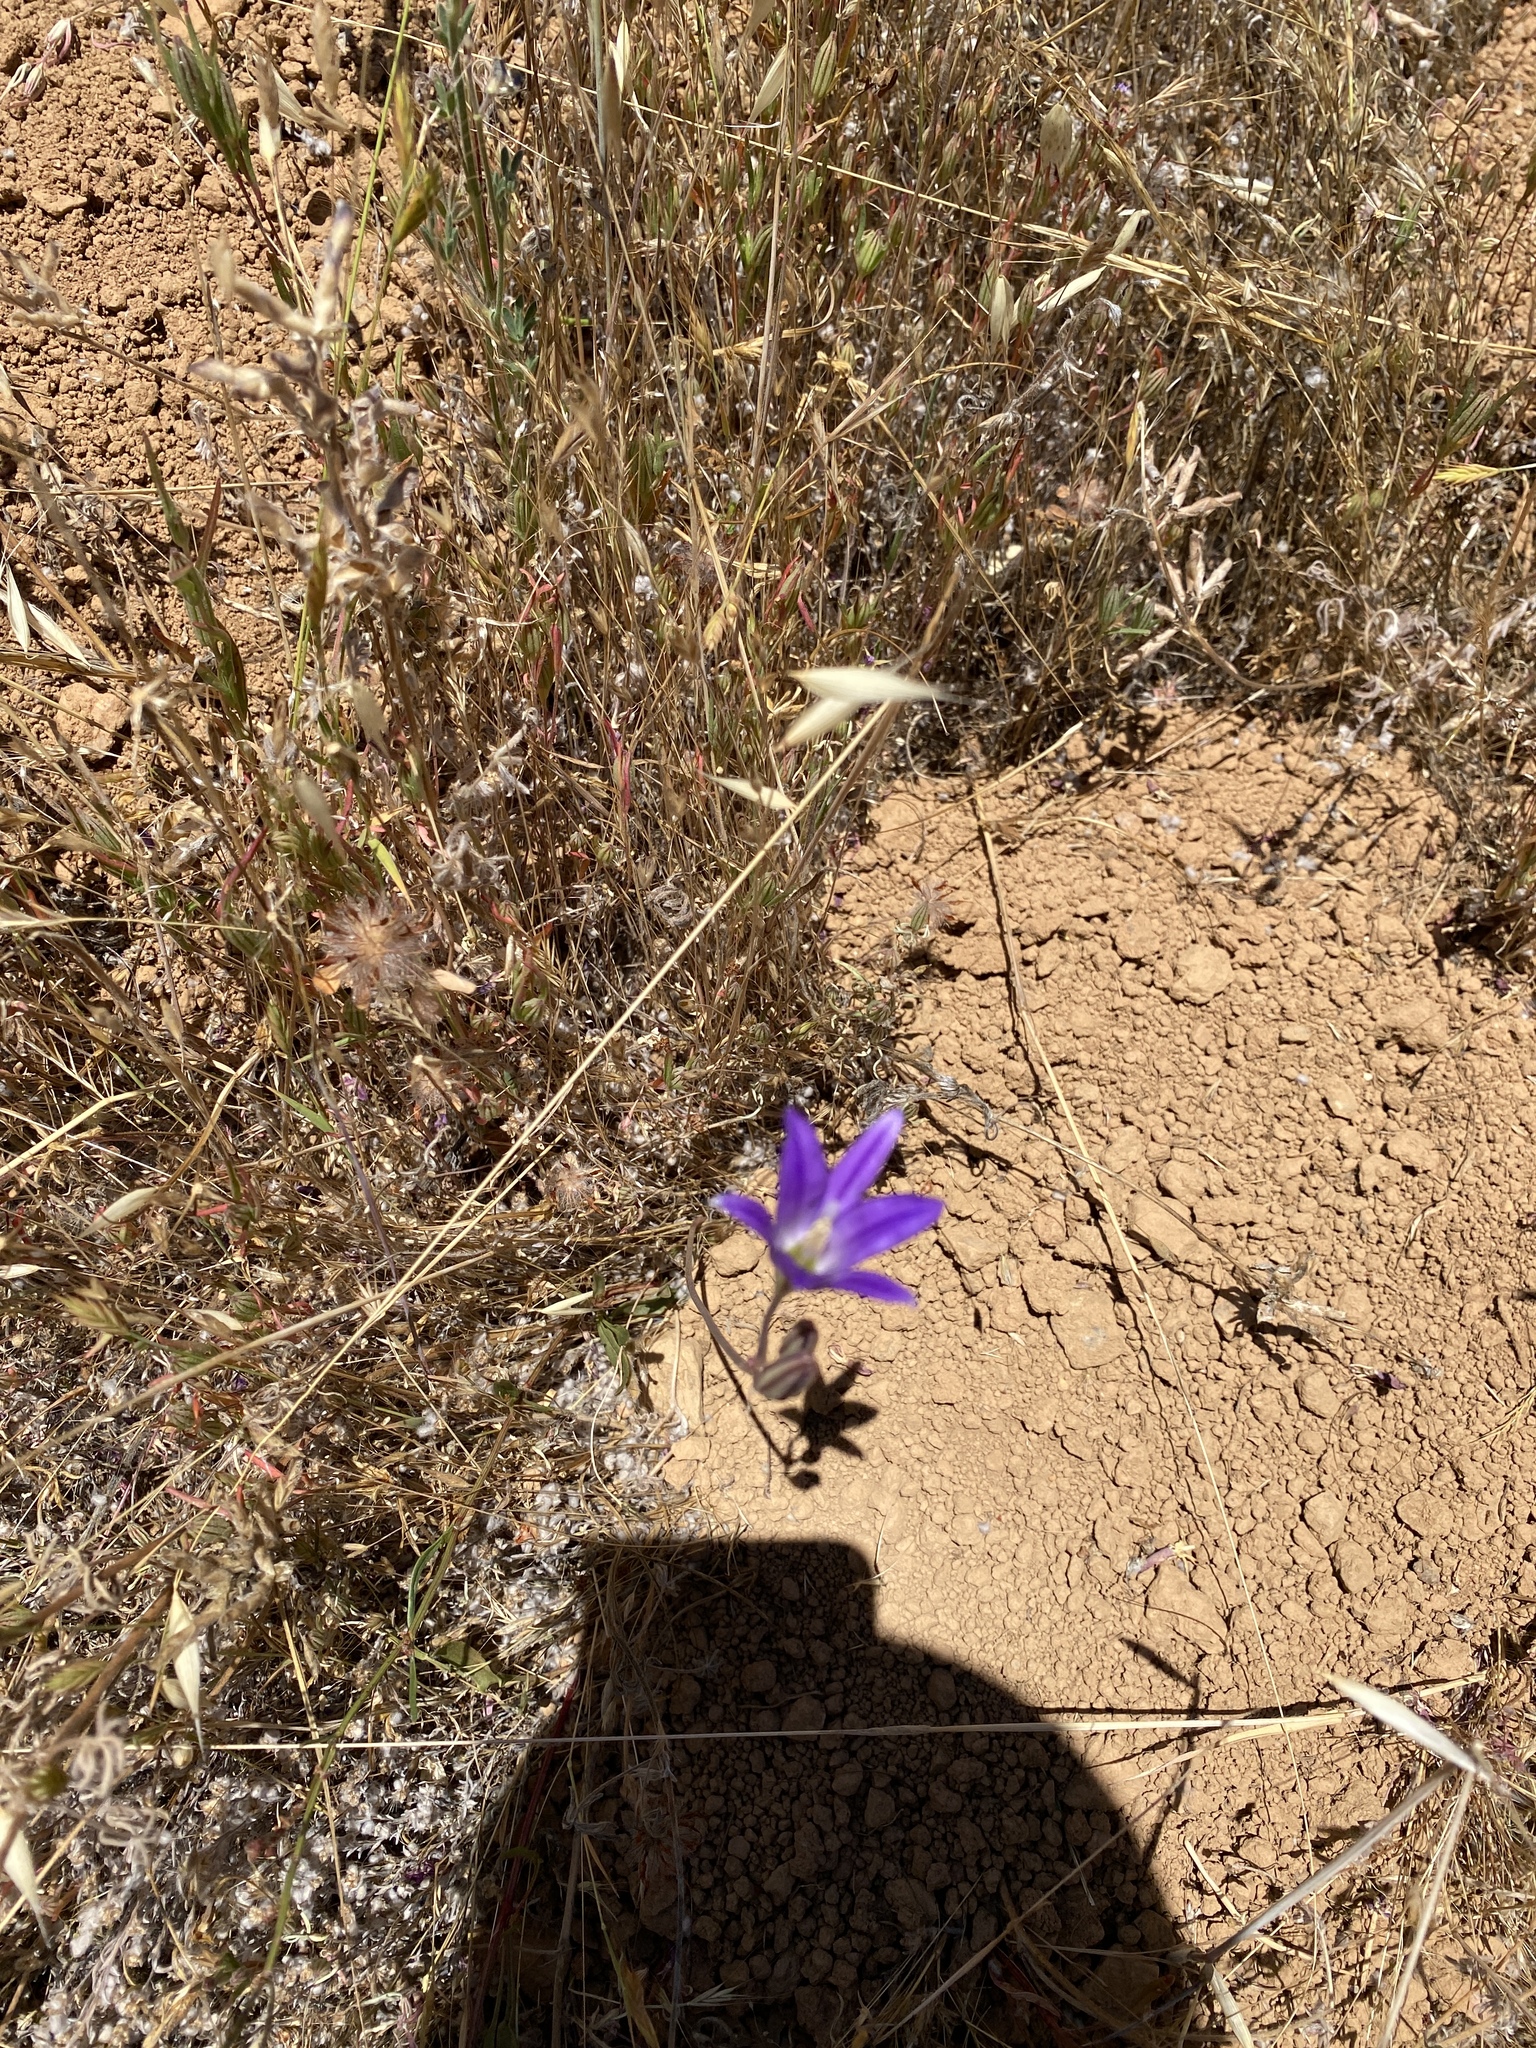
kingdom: Plantae
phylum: Tracheophyta
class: Liliopsida
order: Asparagales
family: Asparagaceae
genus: Brodiaea
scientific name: Brodiaea elegans
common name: Elegant cluster-lily
